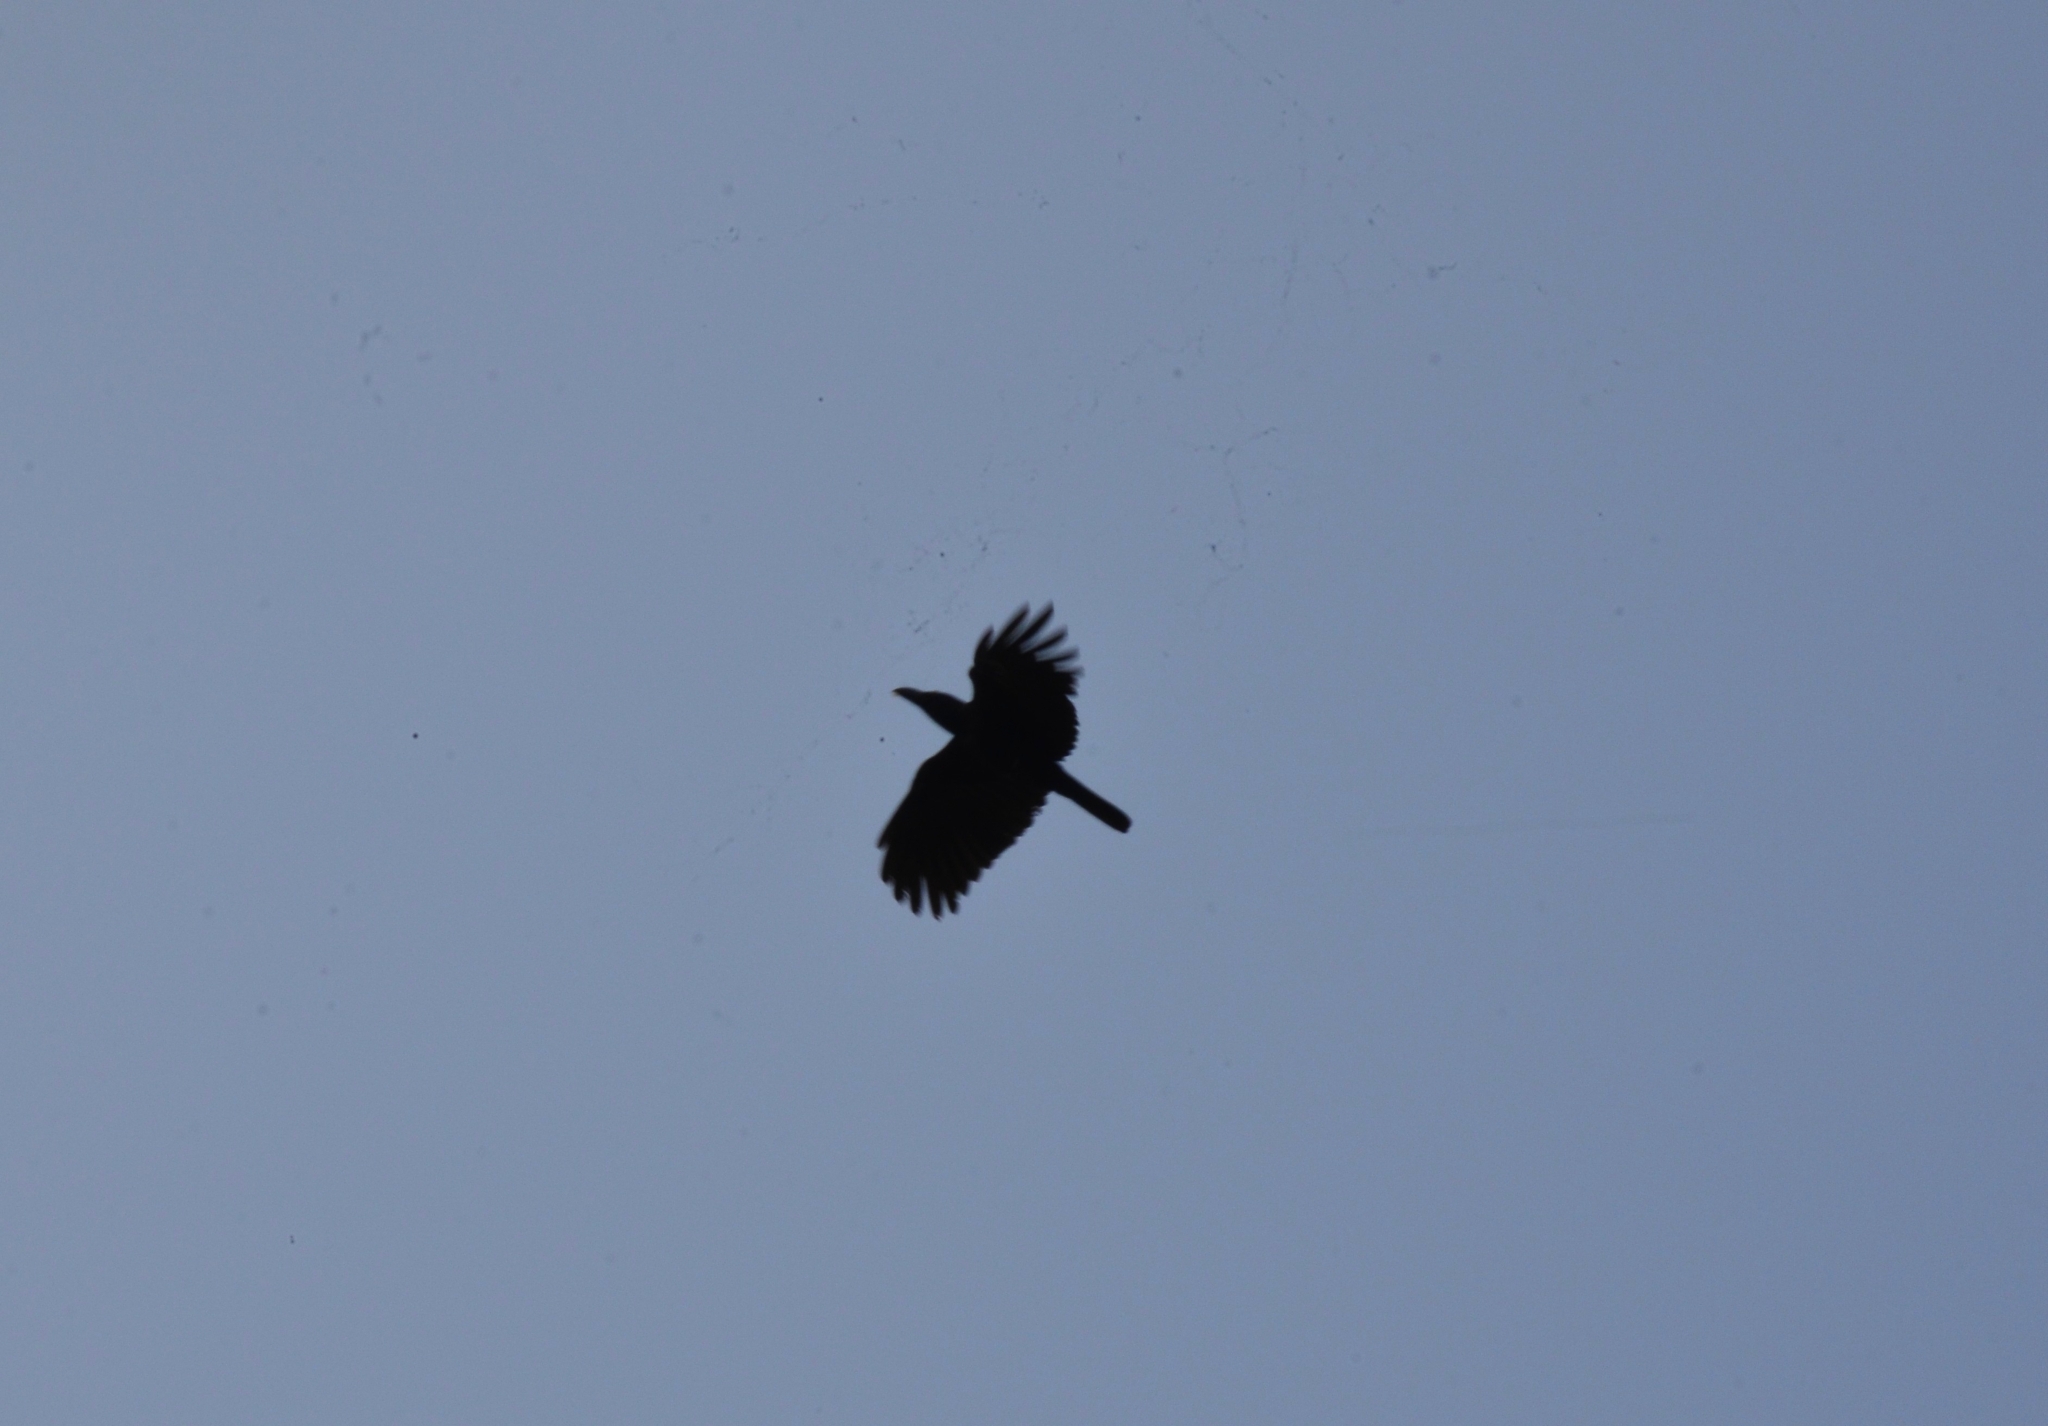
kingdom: Animalia
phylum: Chordata
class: Aves
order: Passeriformes
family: Corvidae
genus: Corvus
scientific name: Corvus splendens
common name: House crow
